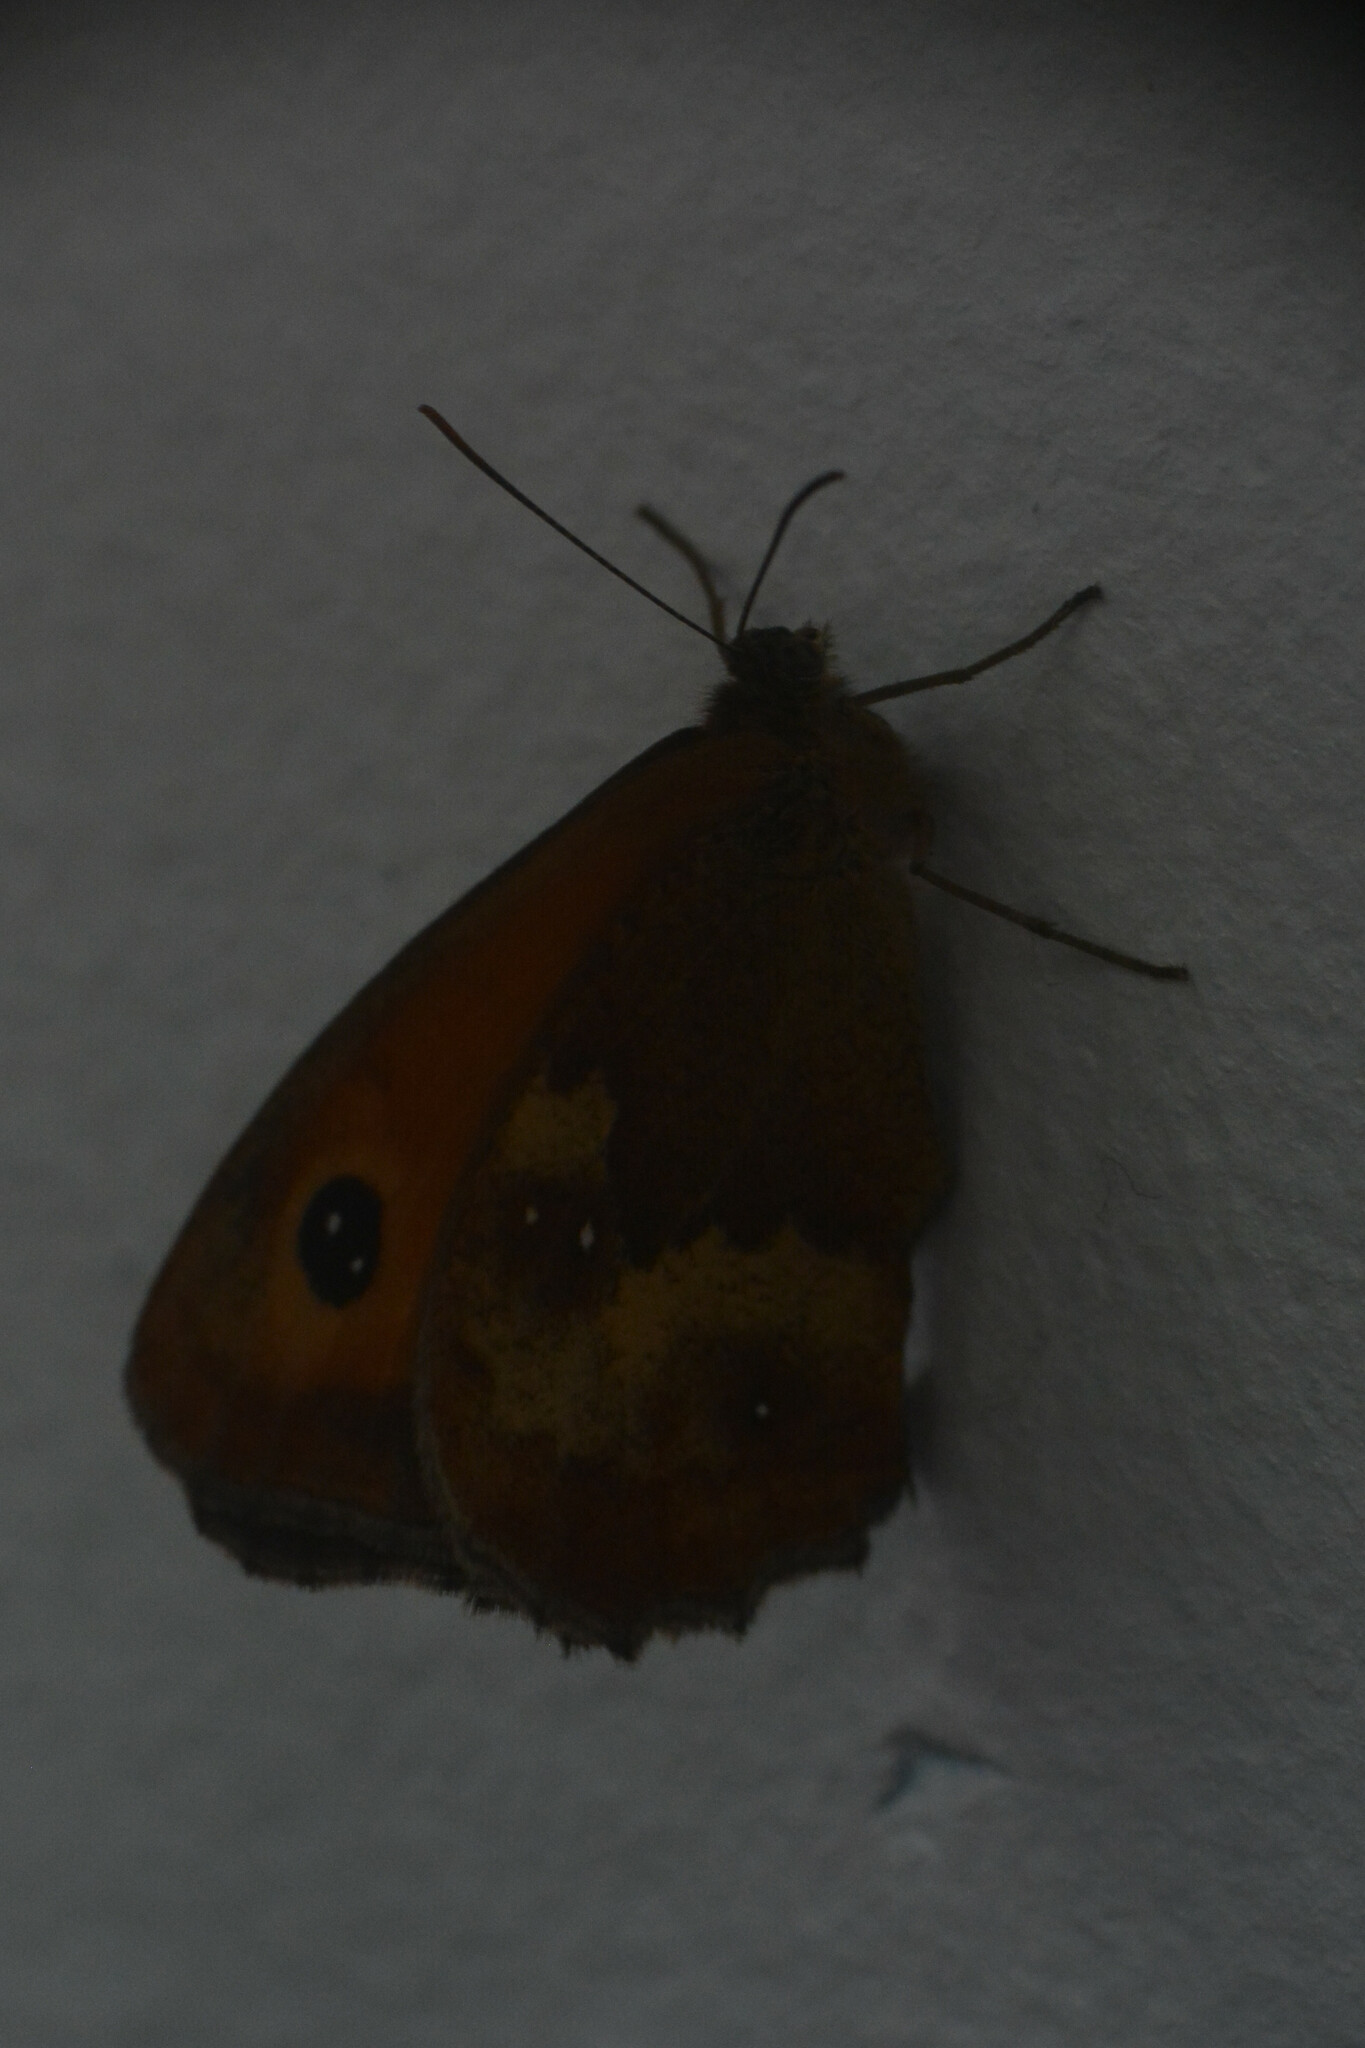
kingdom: Animalia
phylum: Arthropoda
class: Insecta
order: Lepidoptera
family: Nymphalidae
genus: Pyronia
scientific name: Pyronia tithonus
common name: Gatekeeper
